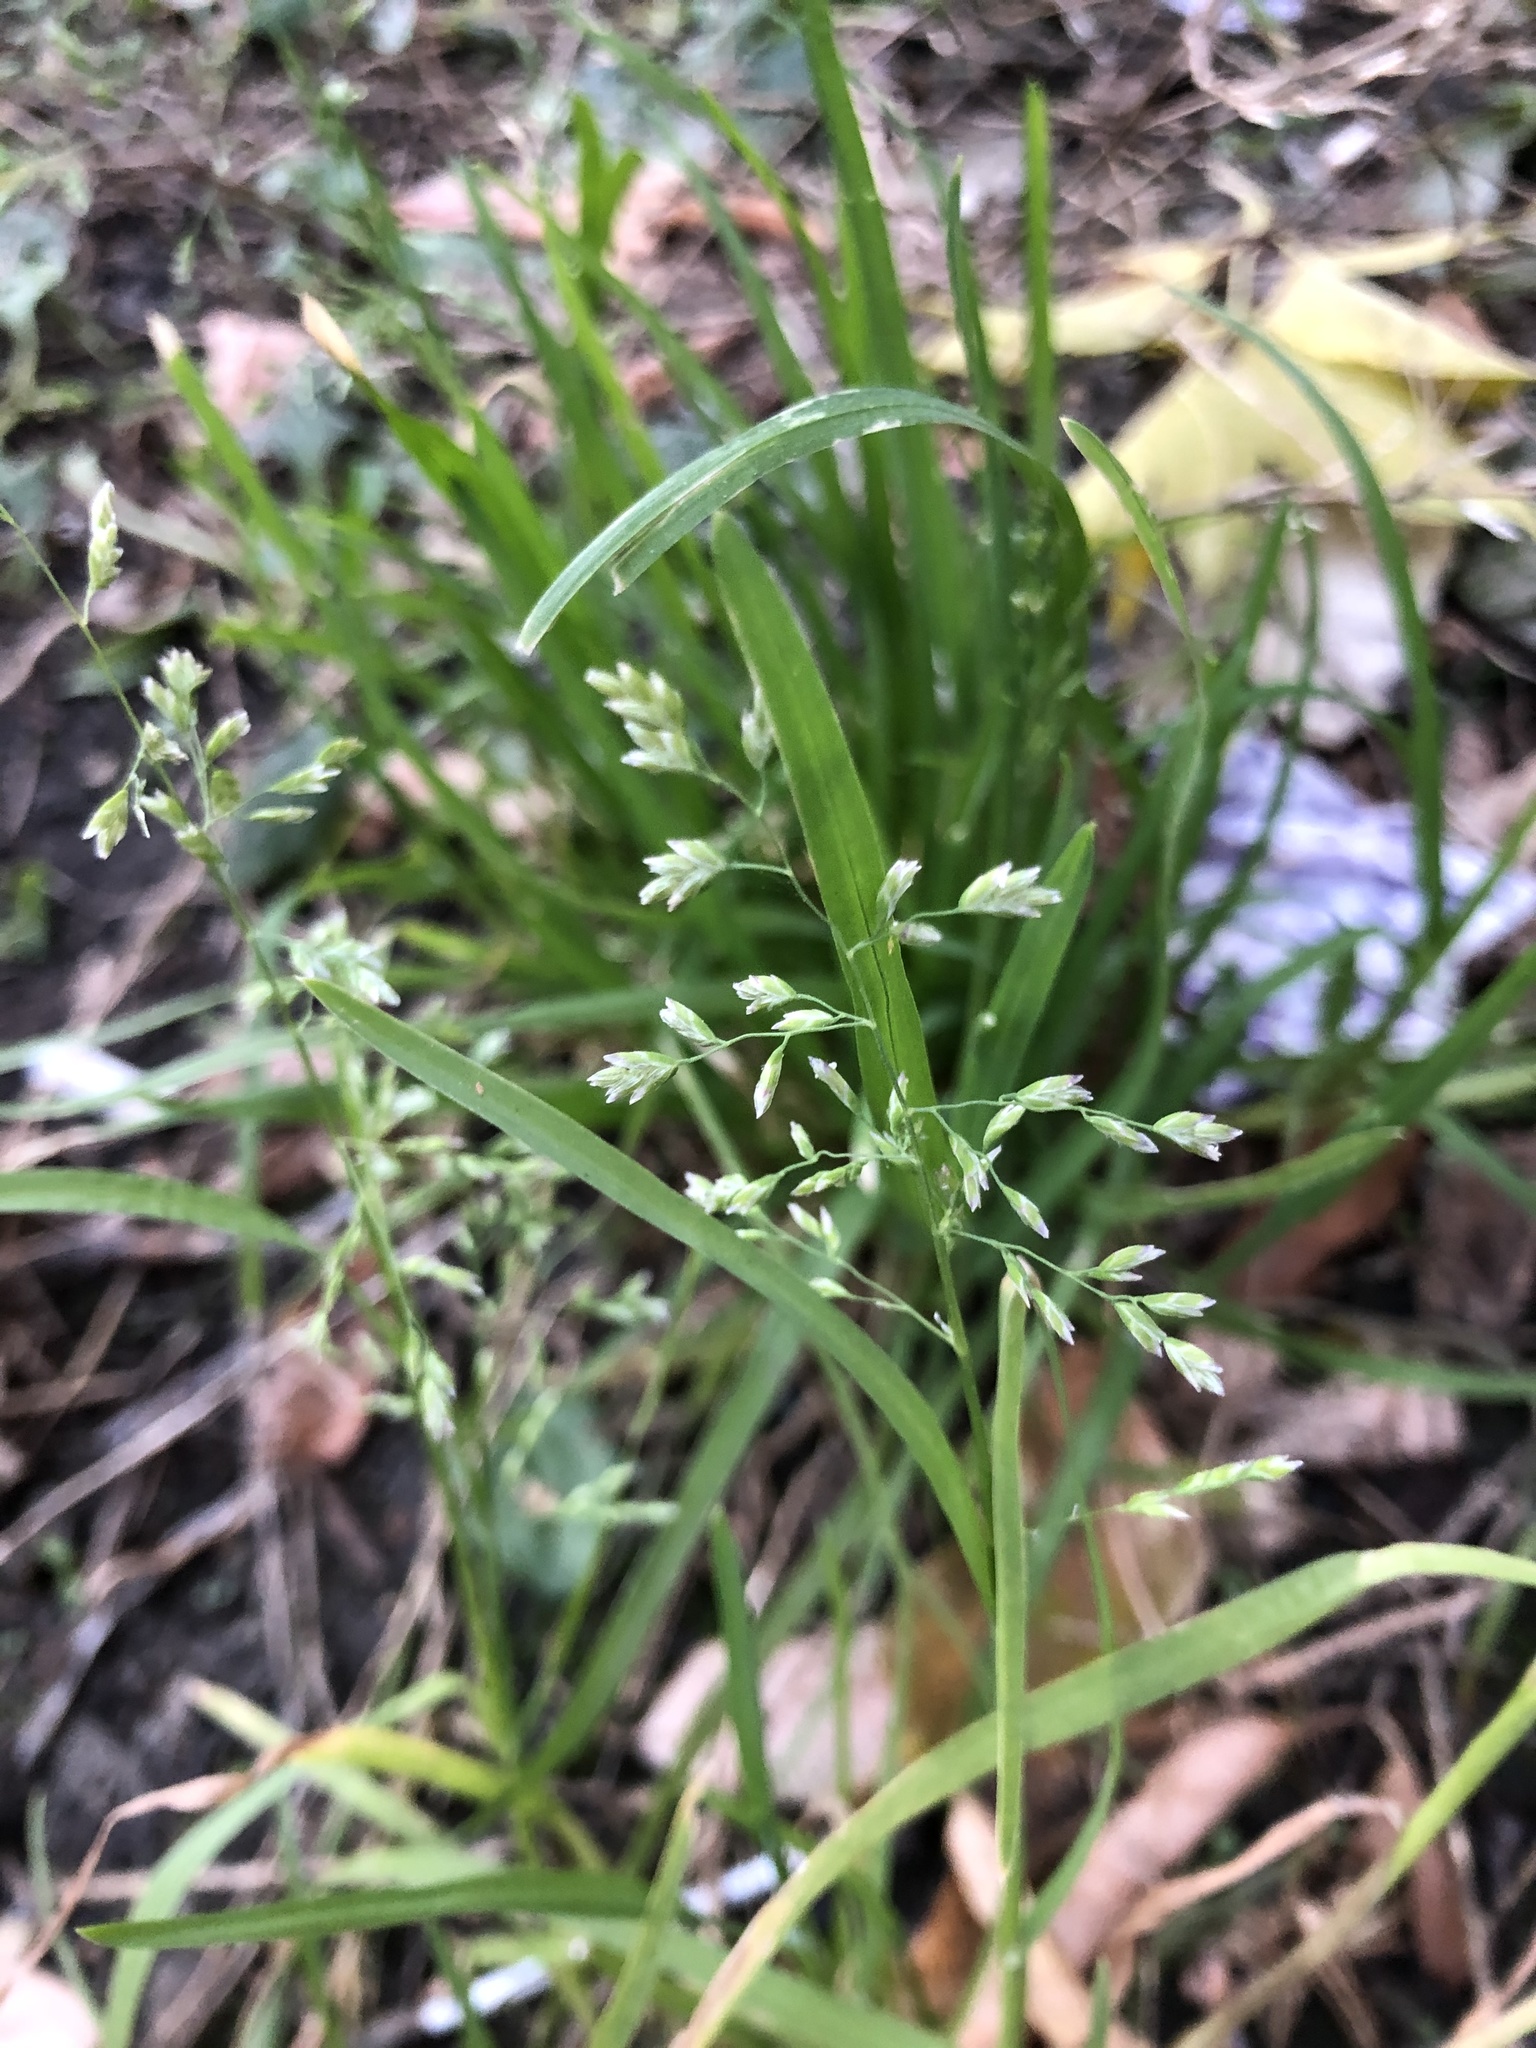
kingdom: Plantae
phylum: Tracheophyta
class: Liliopsida
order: Poales
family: Poaceae
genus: Poa
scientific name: Poa annua
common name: Annual bluegrass
